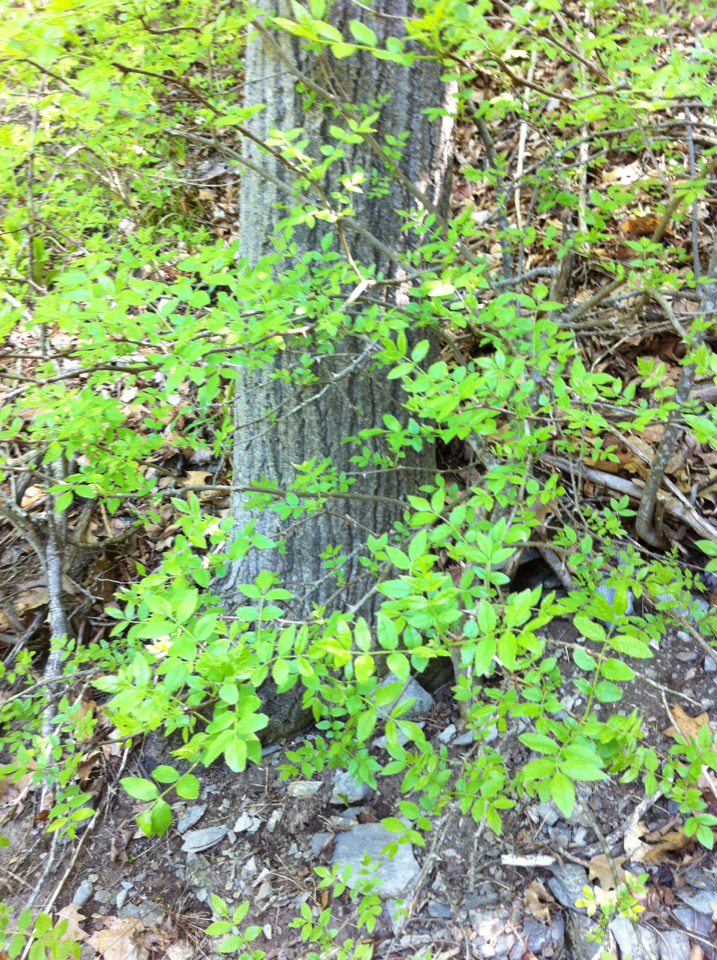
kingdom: Plantae
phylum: Tracheophyta
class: Magnoliopsida
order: Sapindales
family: Rutaceae
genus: Zanthoxylum
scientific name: Zanthoxylum americanum
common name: Northern prickly-ash
